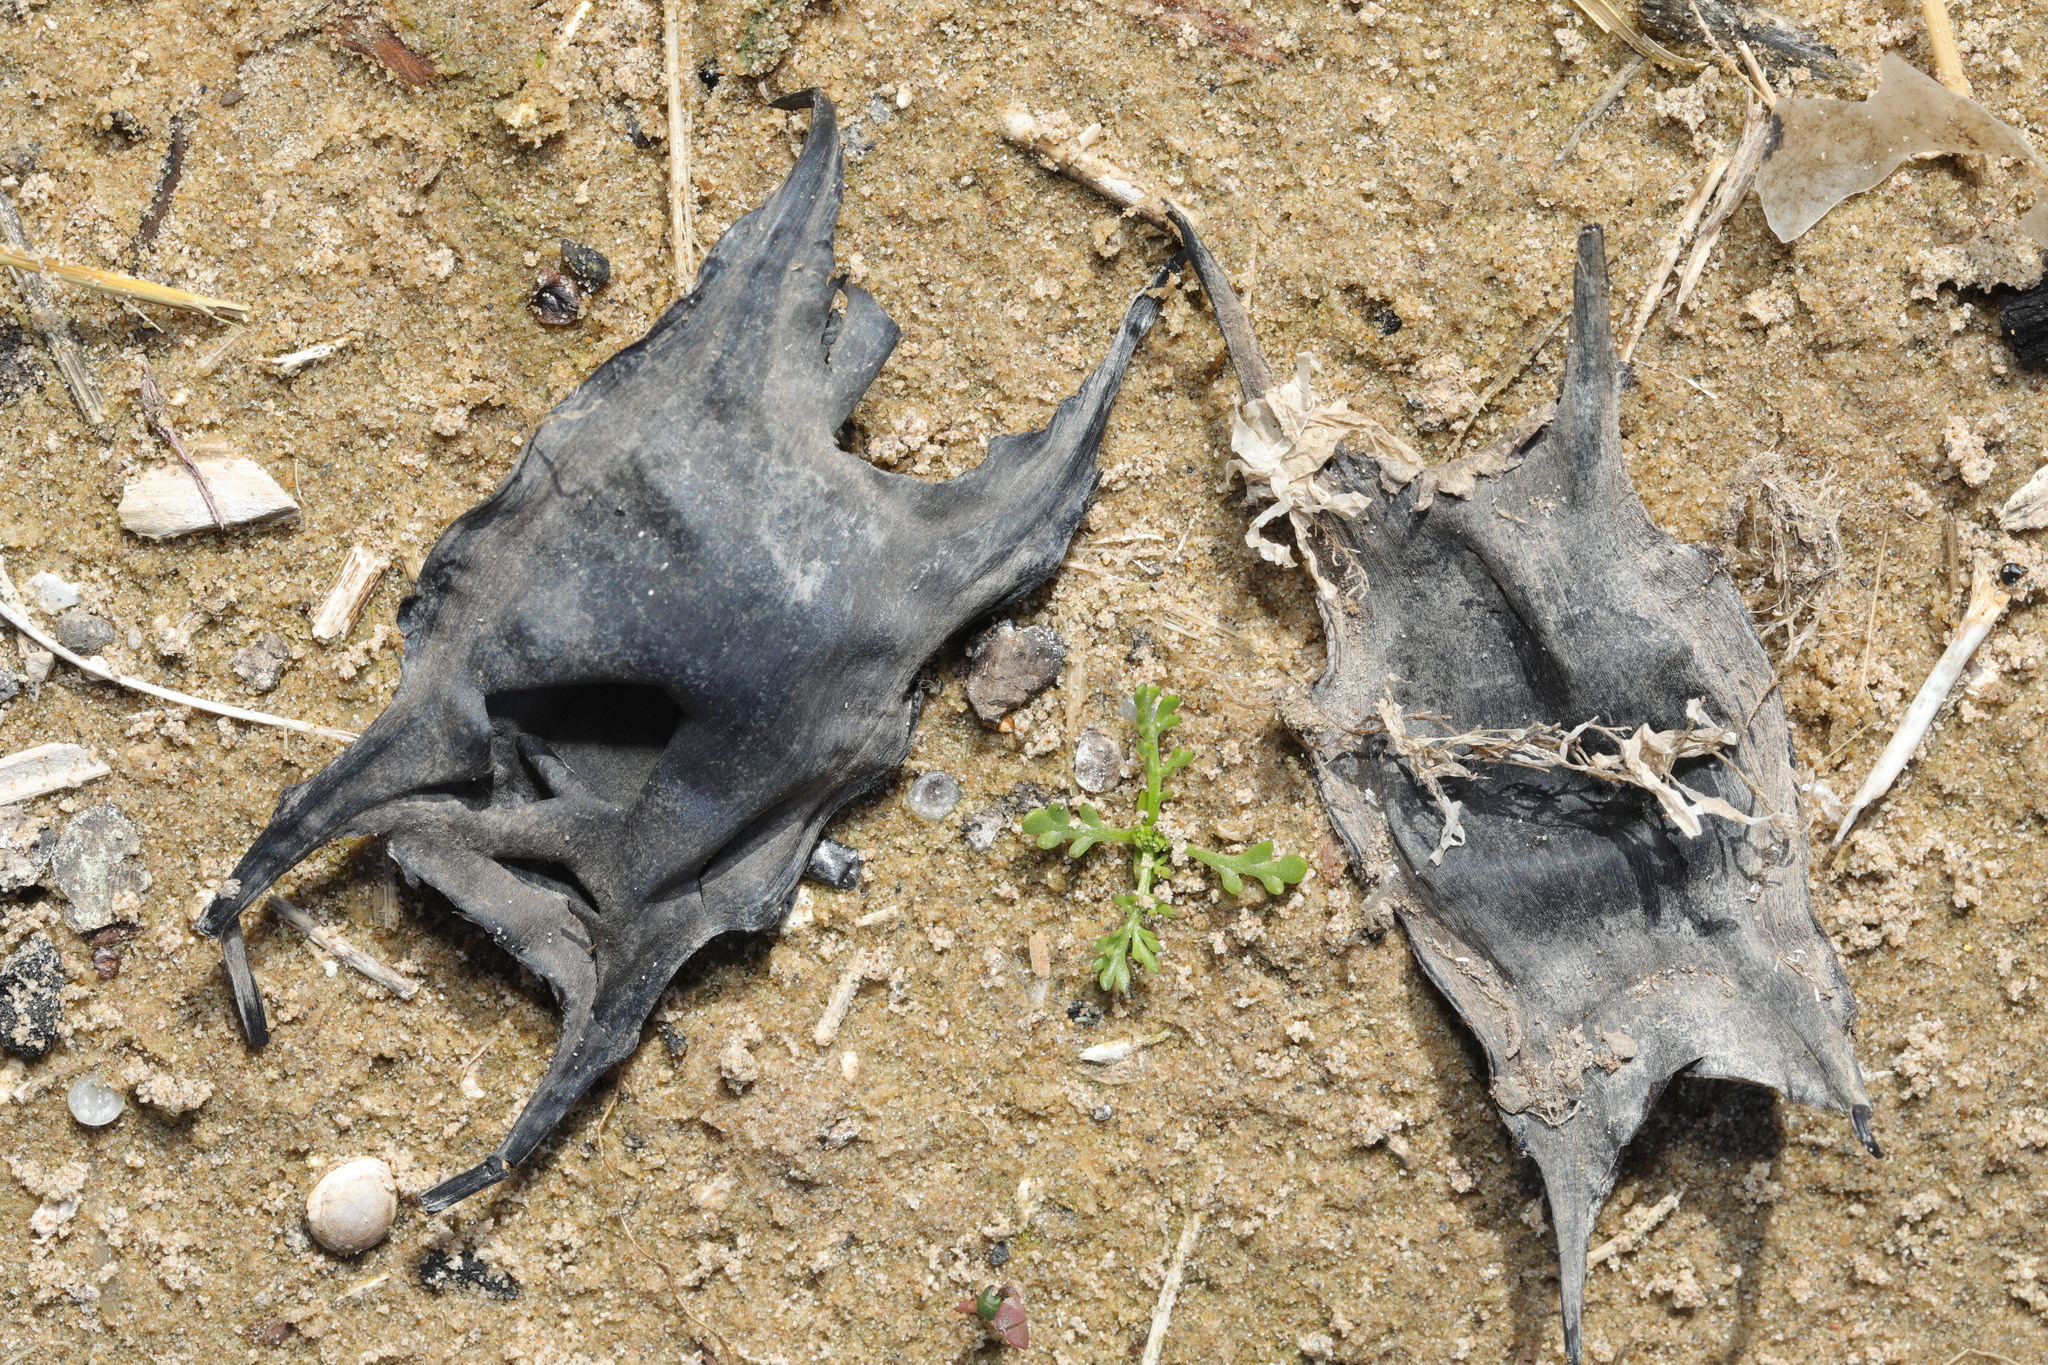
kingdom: Animalia
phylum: Chordata
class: Elasmobranchii
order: Rajiformes
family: Rajidae
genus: Raja
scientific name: Raja clavata
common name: Thornback ray
